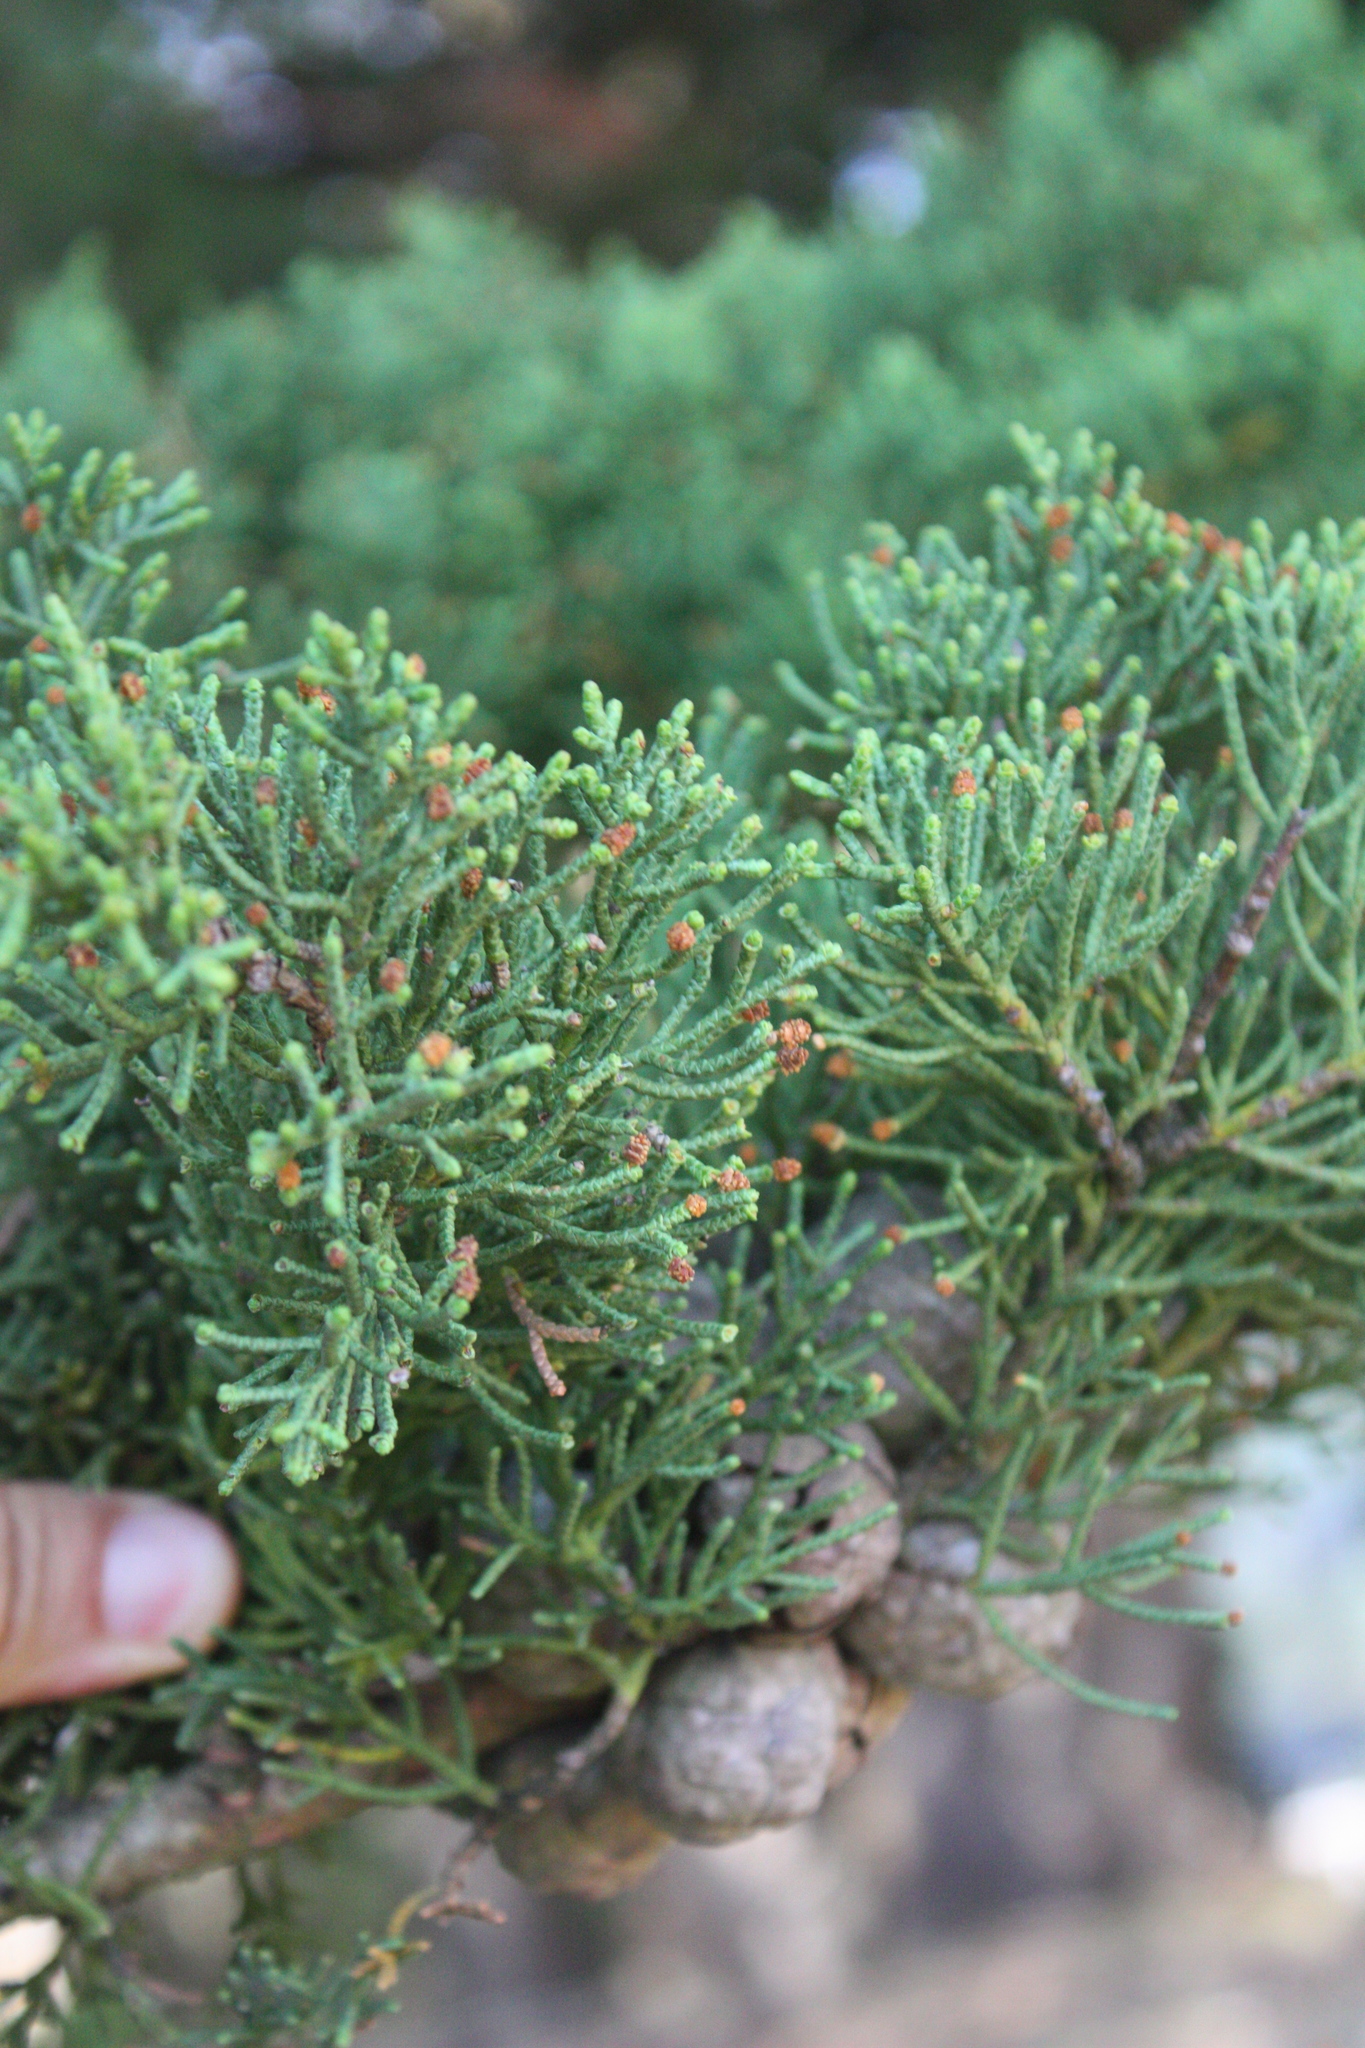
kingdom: Plantae
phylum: Tracheophyta
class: Pinopsida
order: Pinales
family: Cupressaceae
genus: Cupressus
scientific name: Cupressus macrocarpa
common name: Monterey cypress
